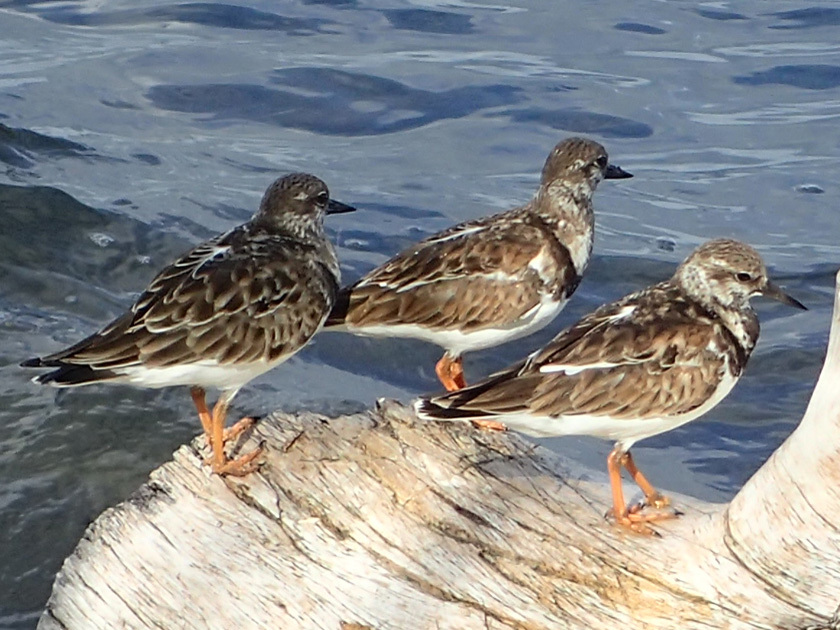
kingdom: Animalia
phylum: Chordata
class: Aves
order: Charadriiformes
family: Scolopacidae
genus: Arenaria
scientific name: Arenaria interpres
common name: Ruddy turnstone
